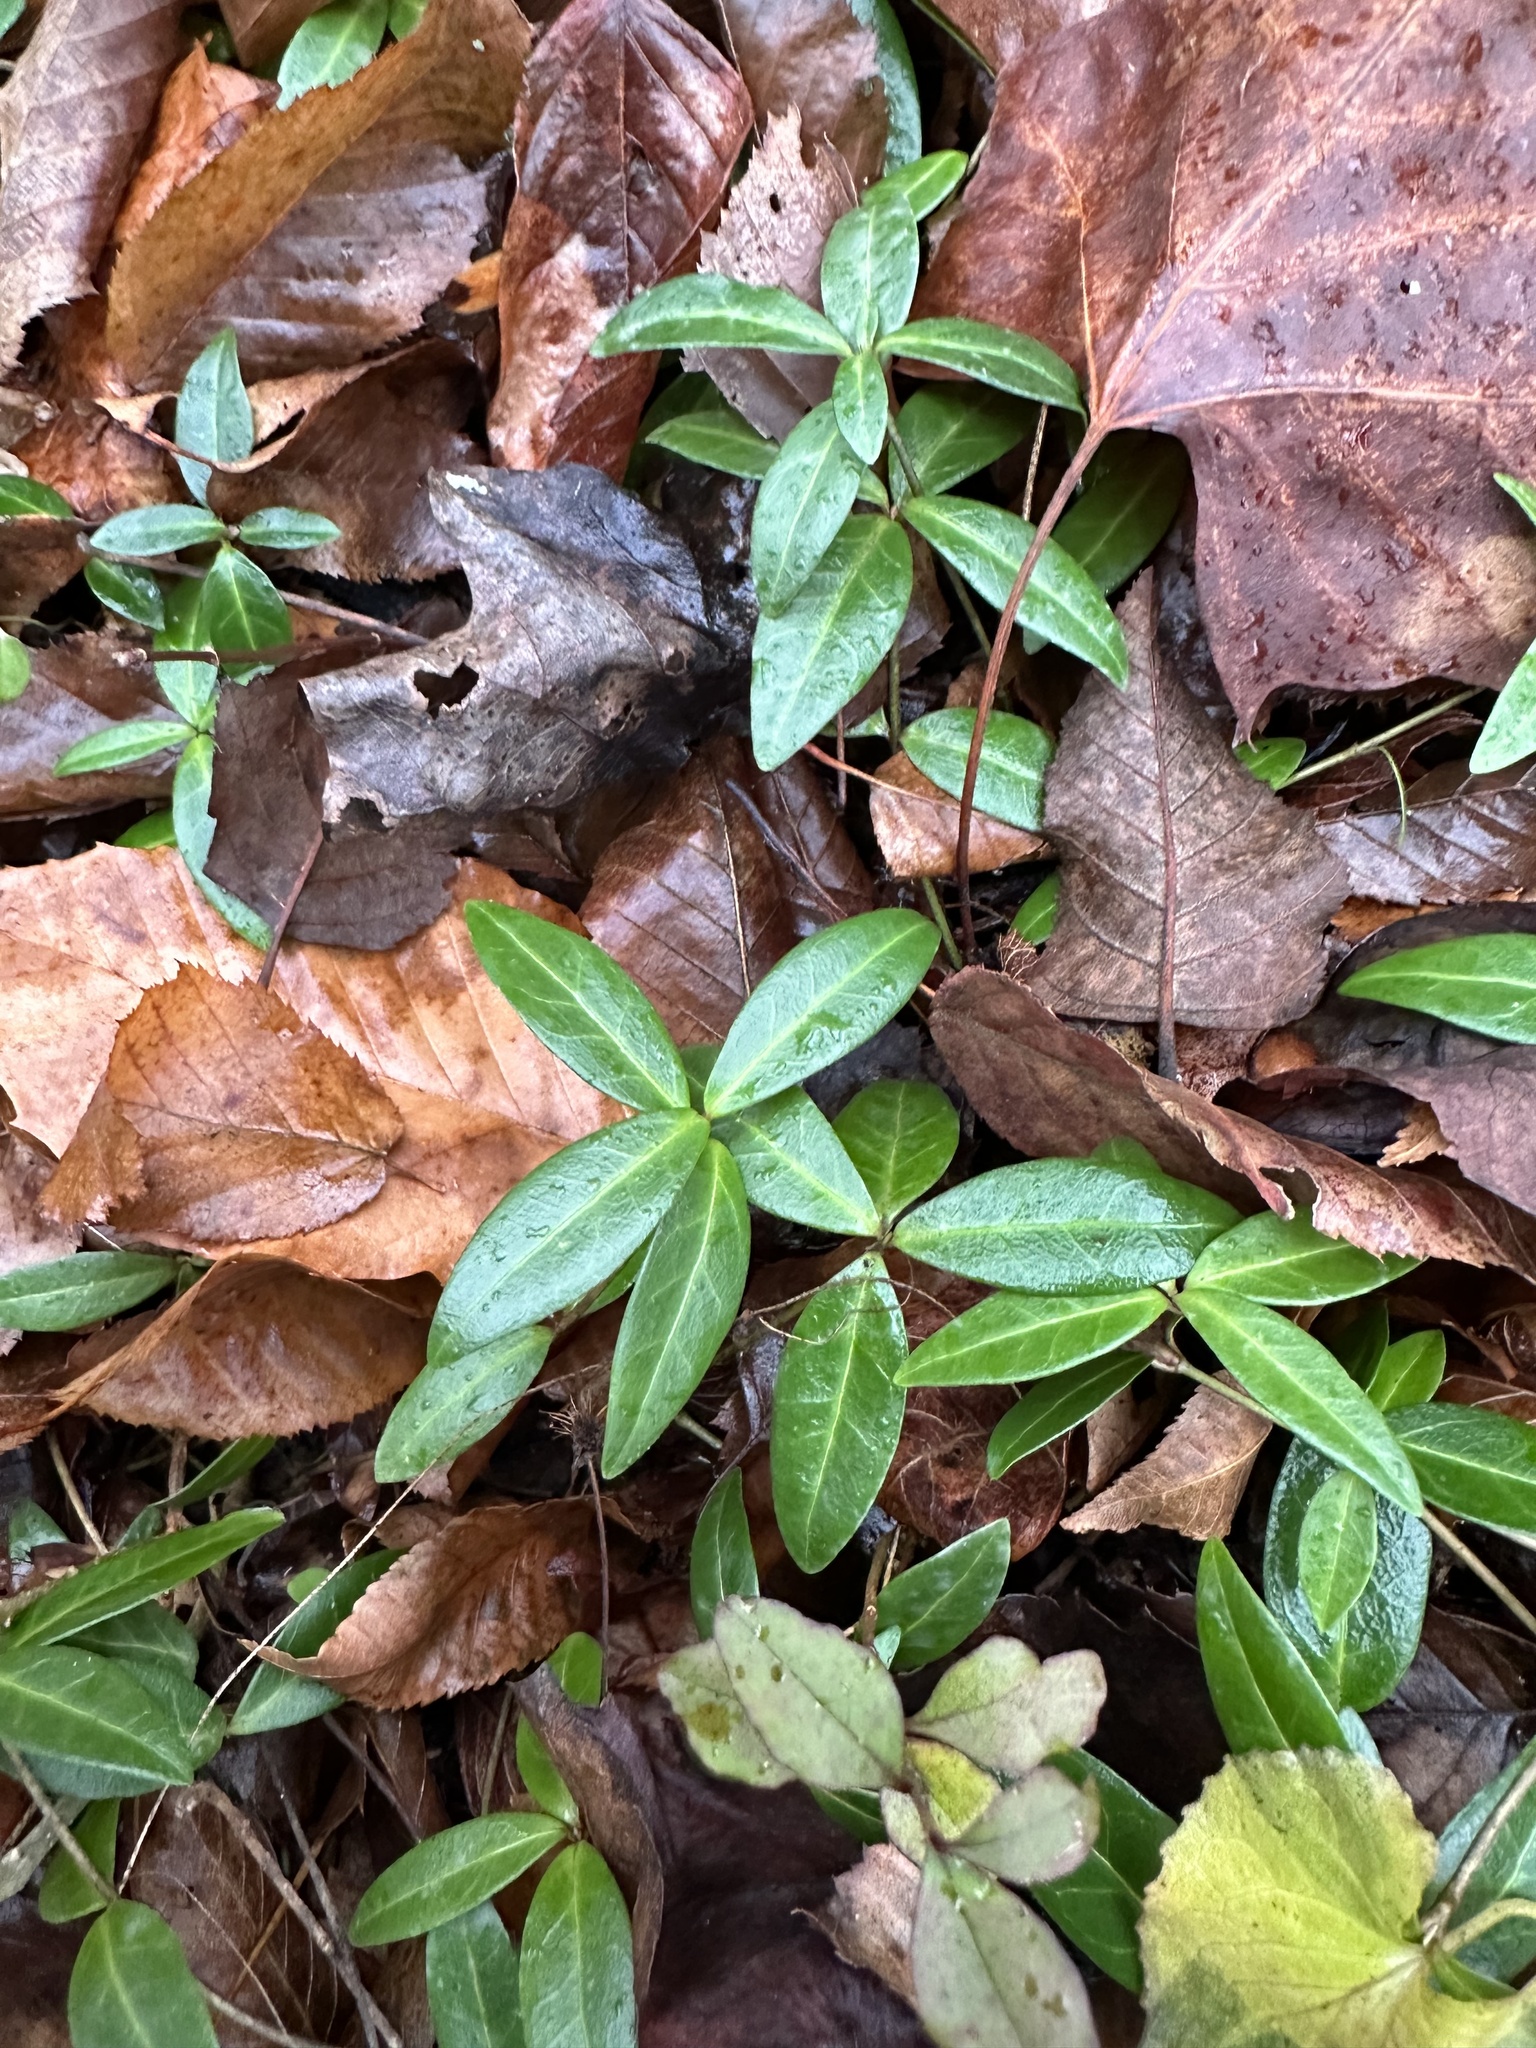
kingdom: Plantae
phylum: Tracheophyta
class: Magnoliopsida
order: Gentianales
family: Apocynaceae
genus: Vinca
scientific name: Vinca minor
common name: Lesser periwinkle
